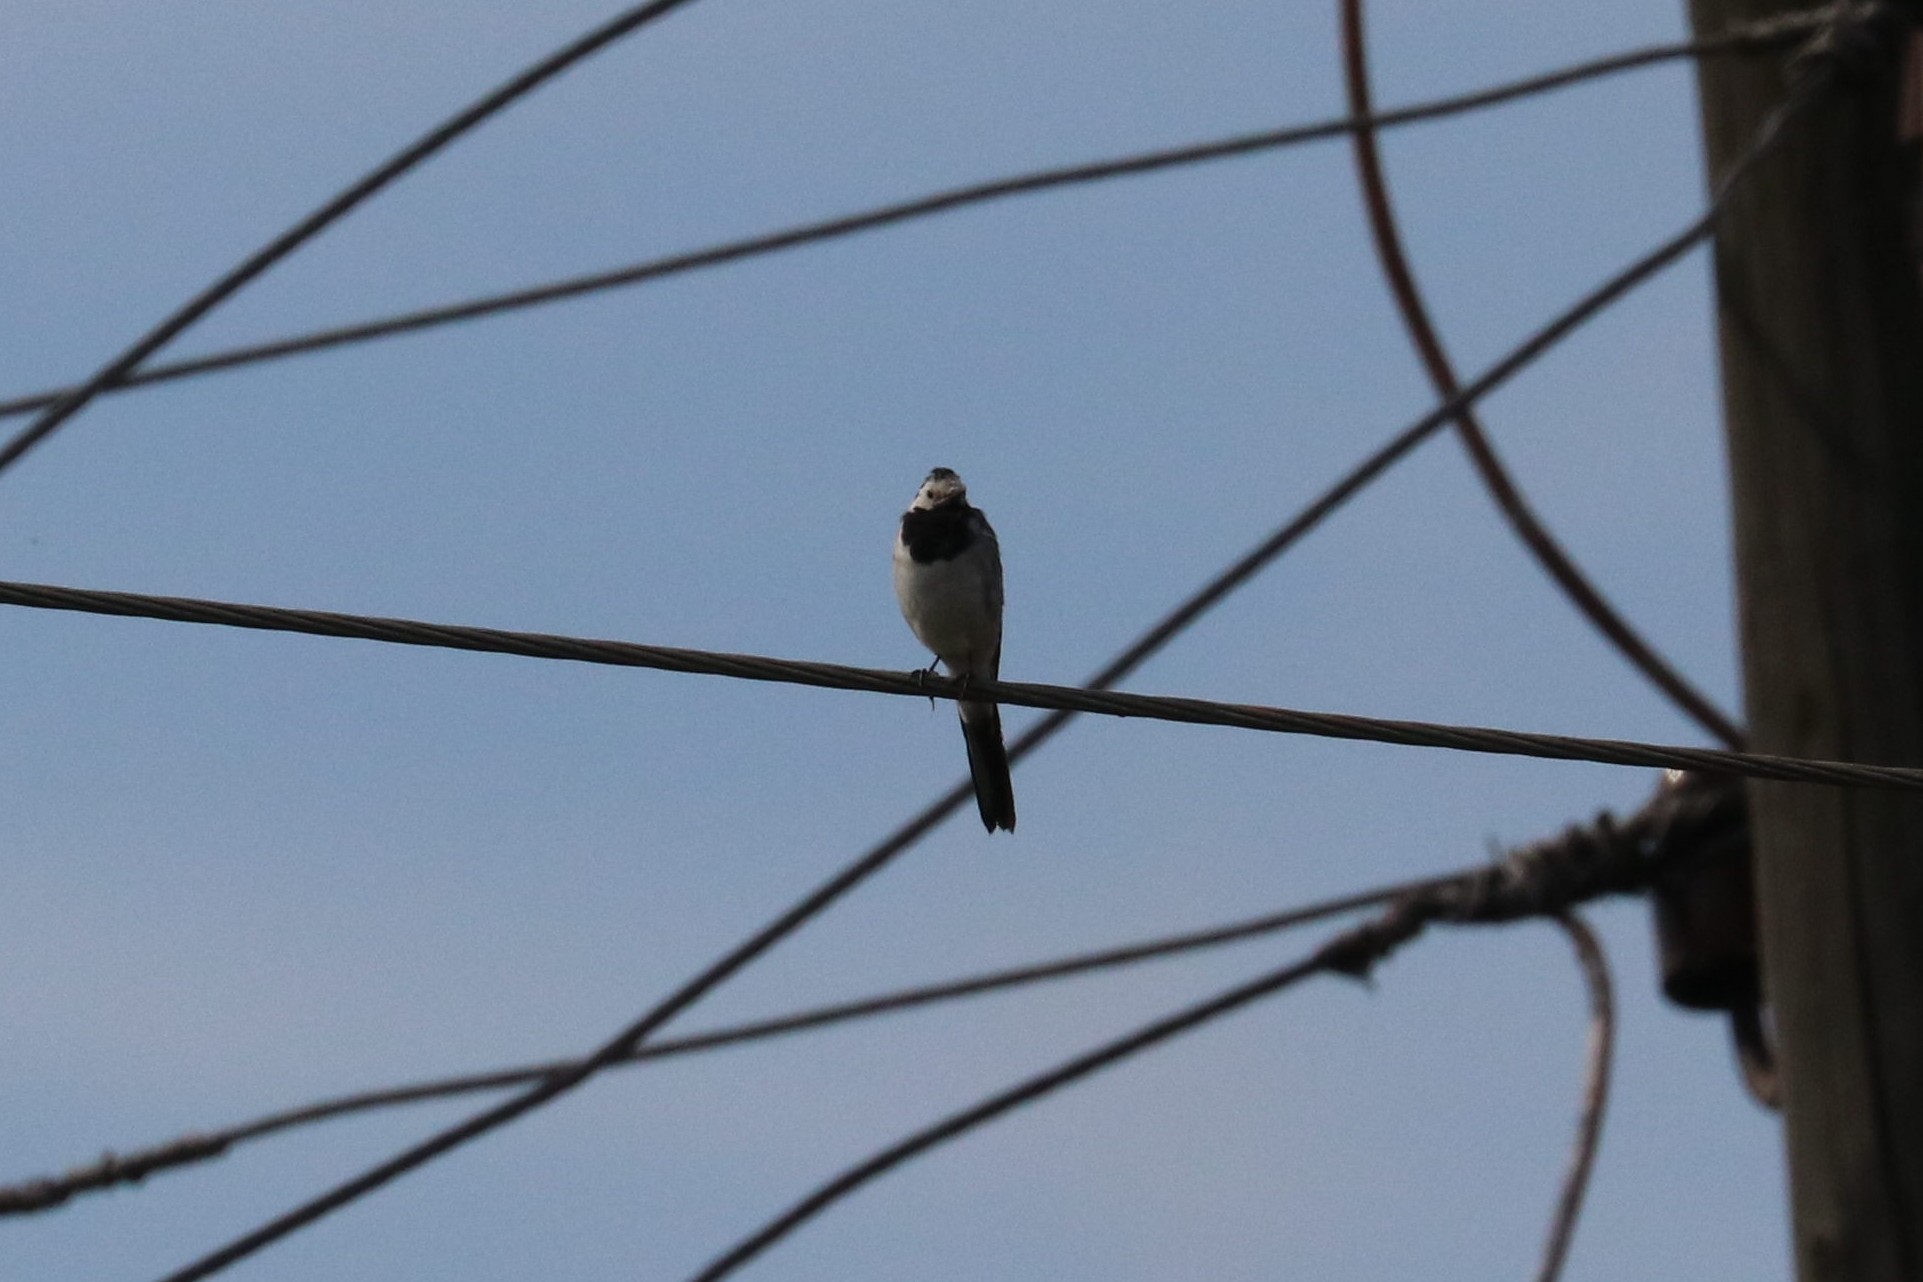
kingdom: Animalia
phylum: Chordata
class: Aves
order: Passeriformes
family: Motacillidae
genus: Motacilla
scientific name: Motacilla alba
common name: White wagtail
